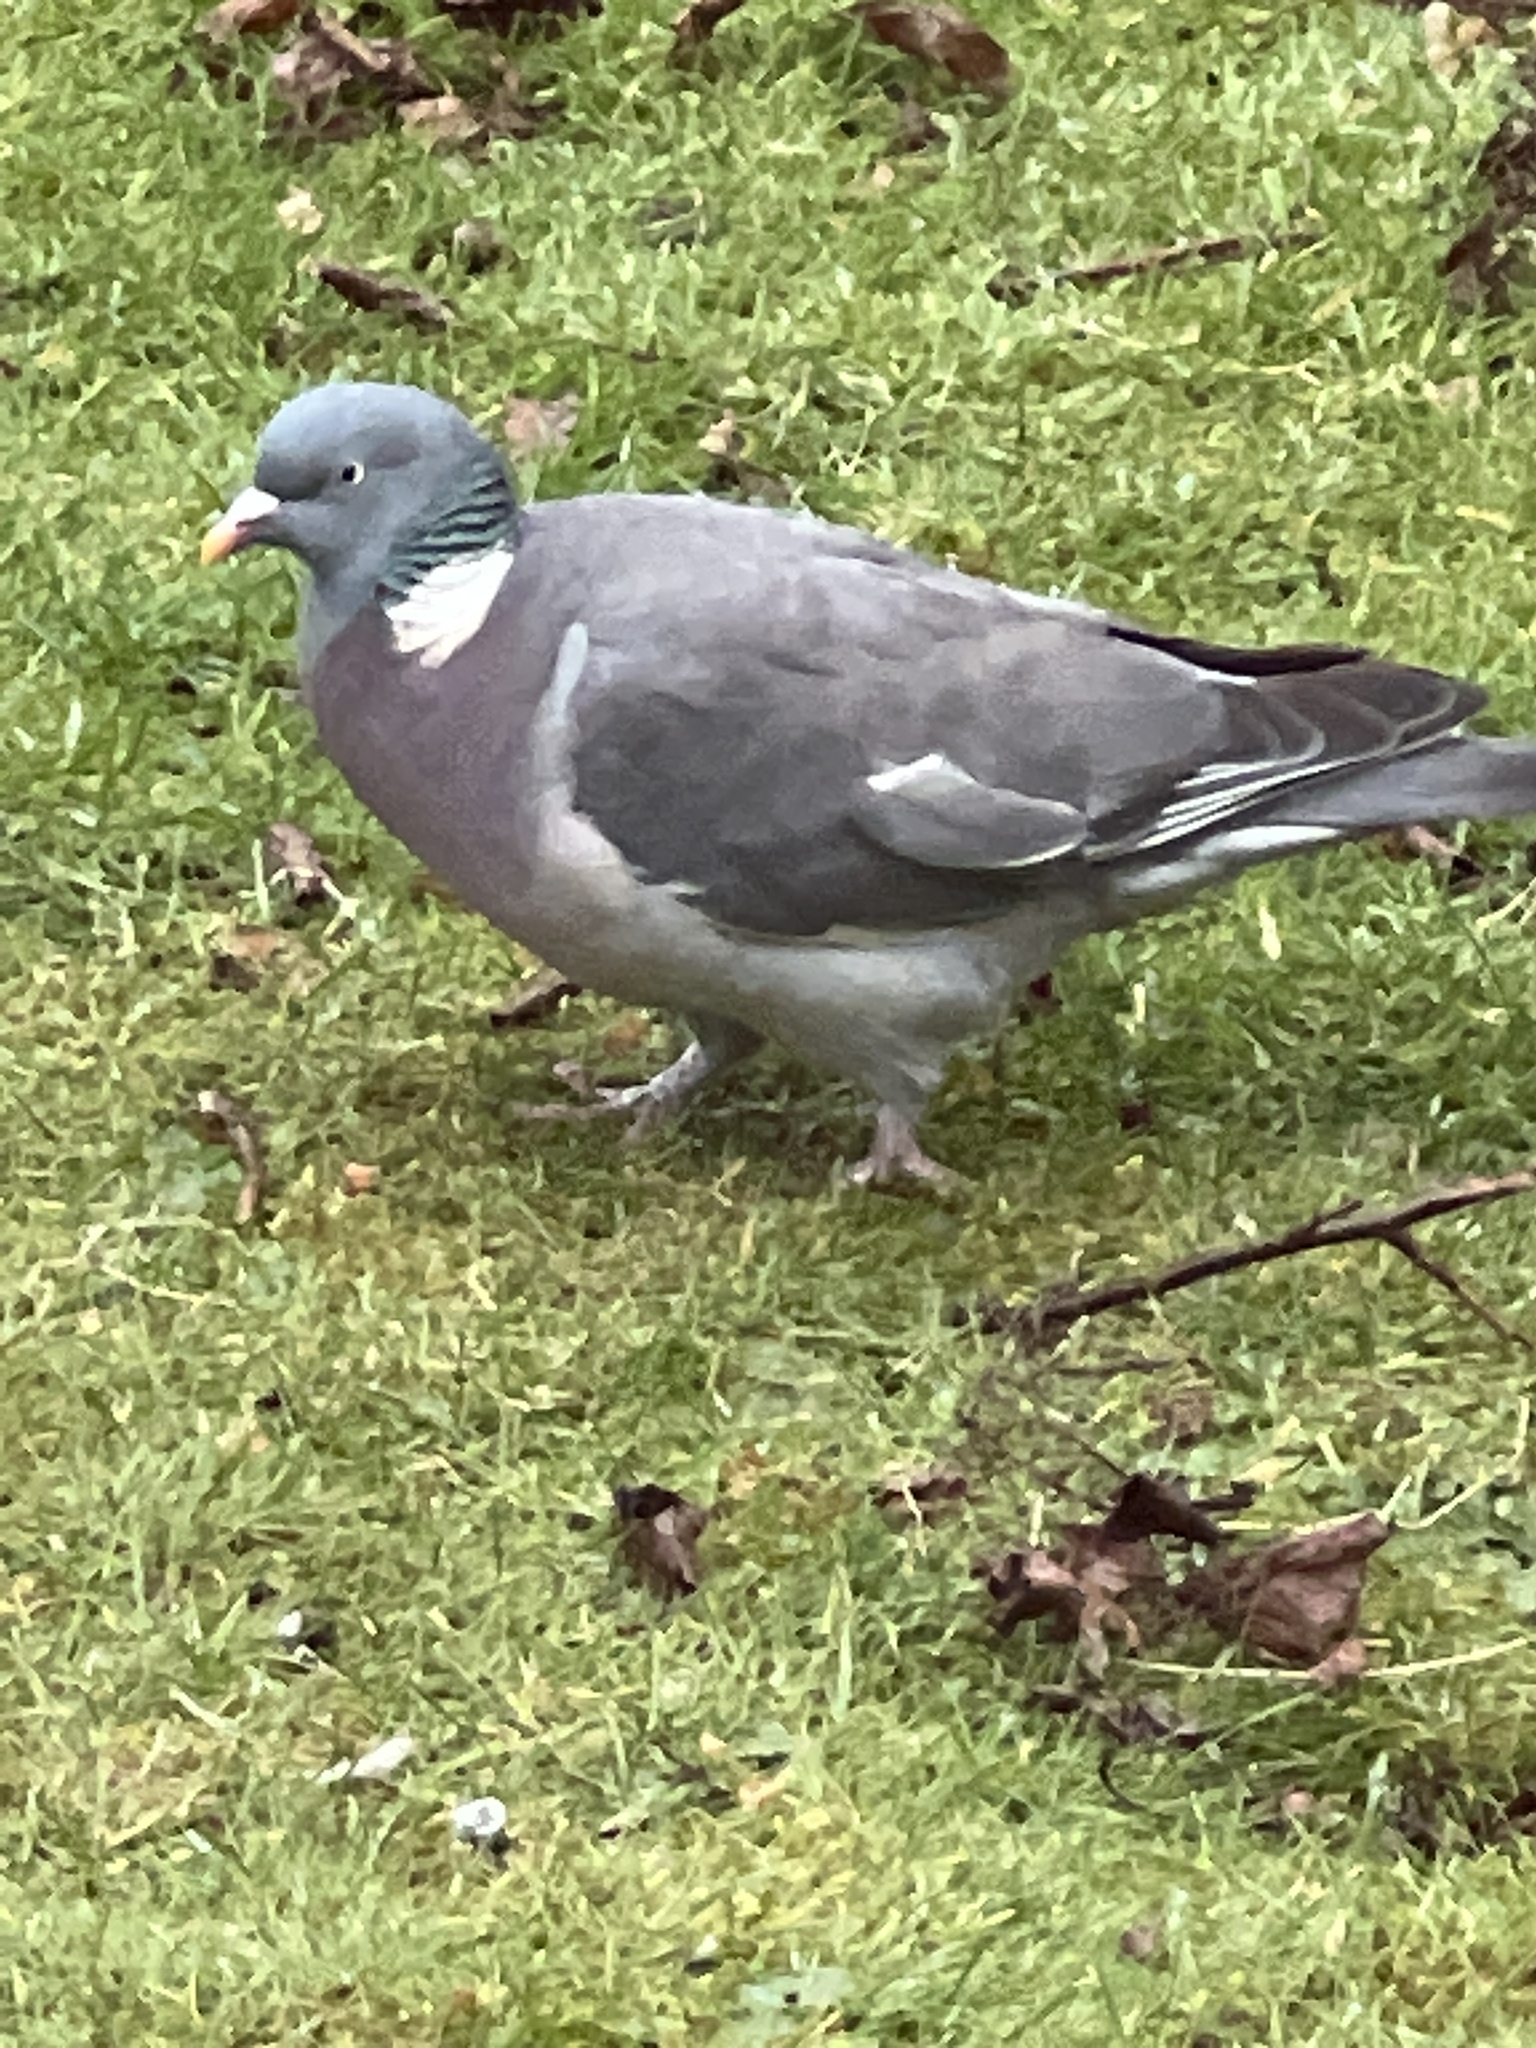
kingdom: Animalia
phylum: Chordata
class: Aves
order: Columbiformes
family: Columbidae
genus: Columba
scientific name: Columba palumbus
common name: Common wood pigeon
